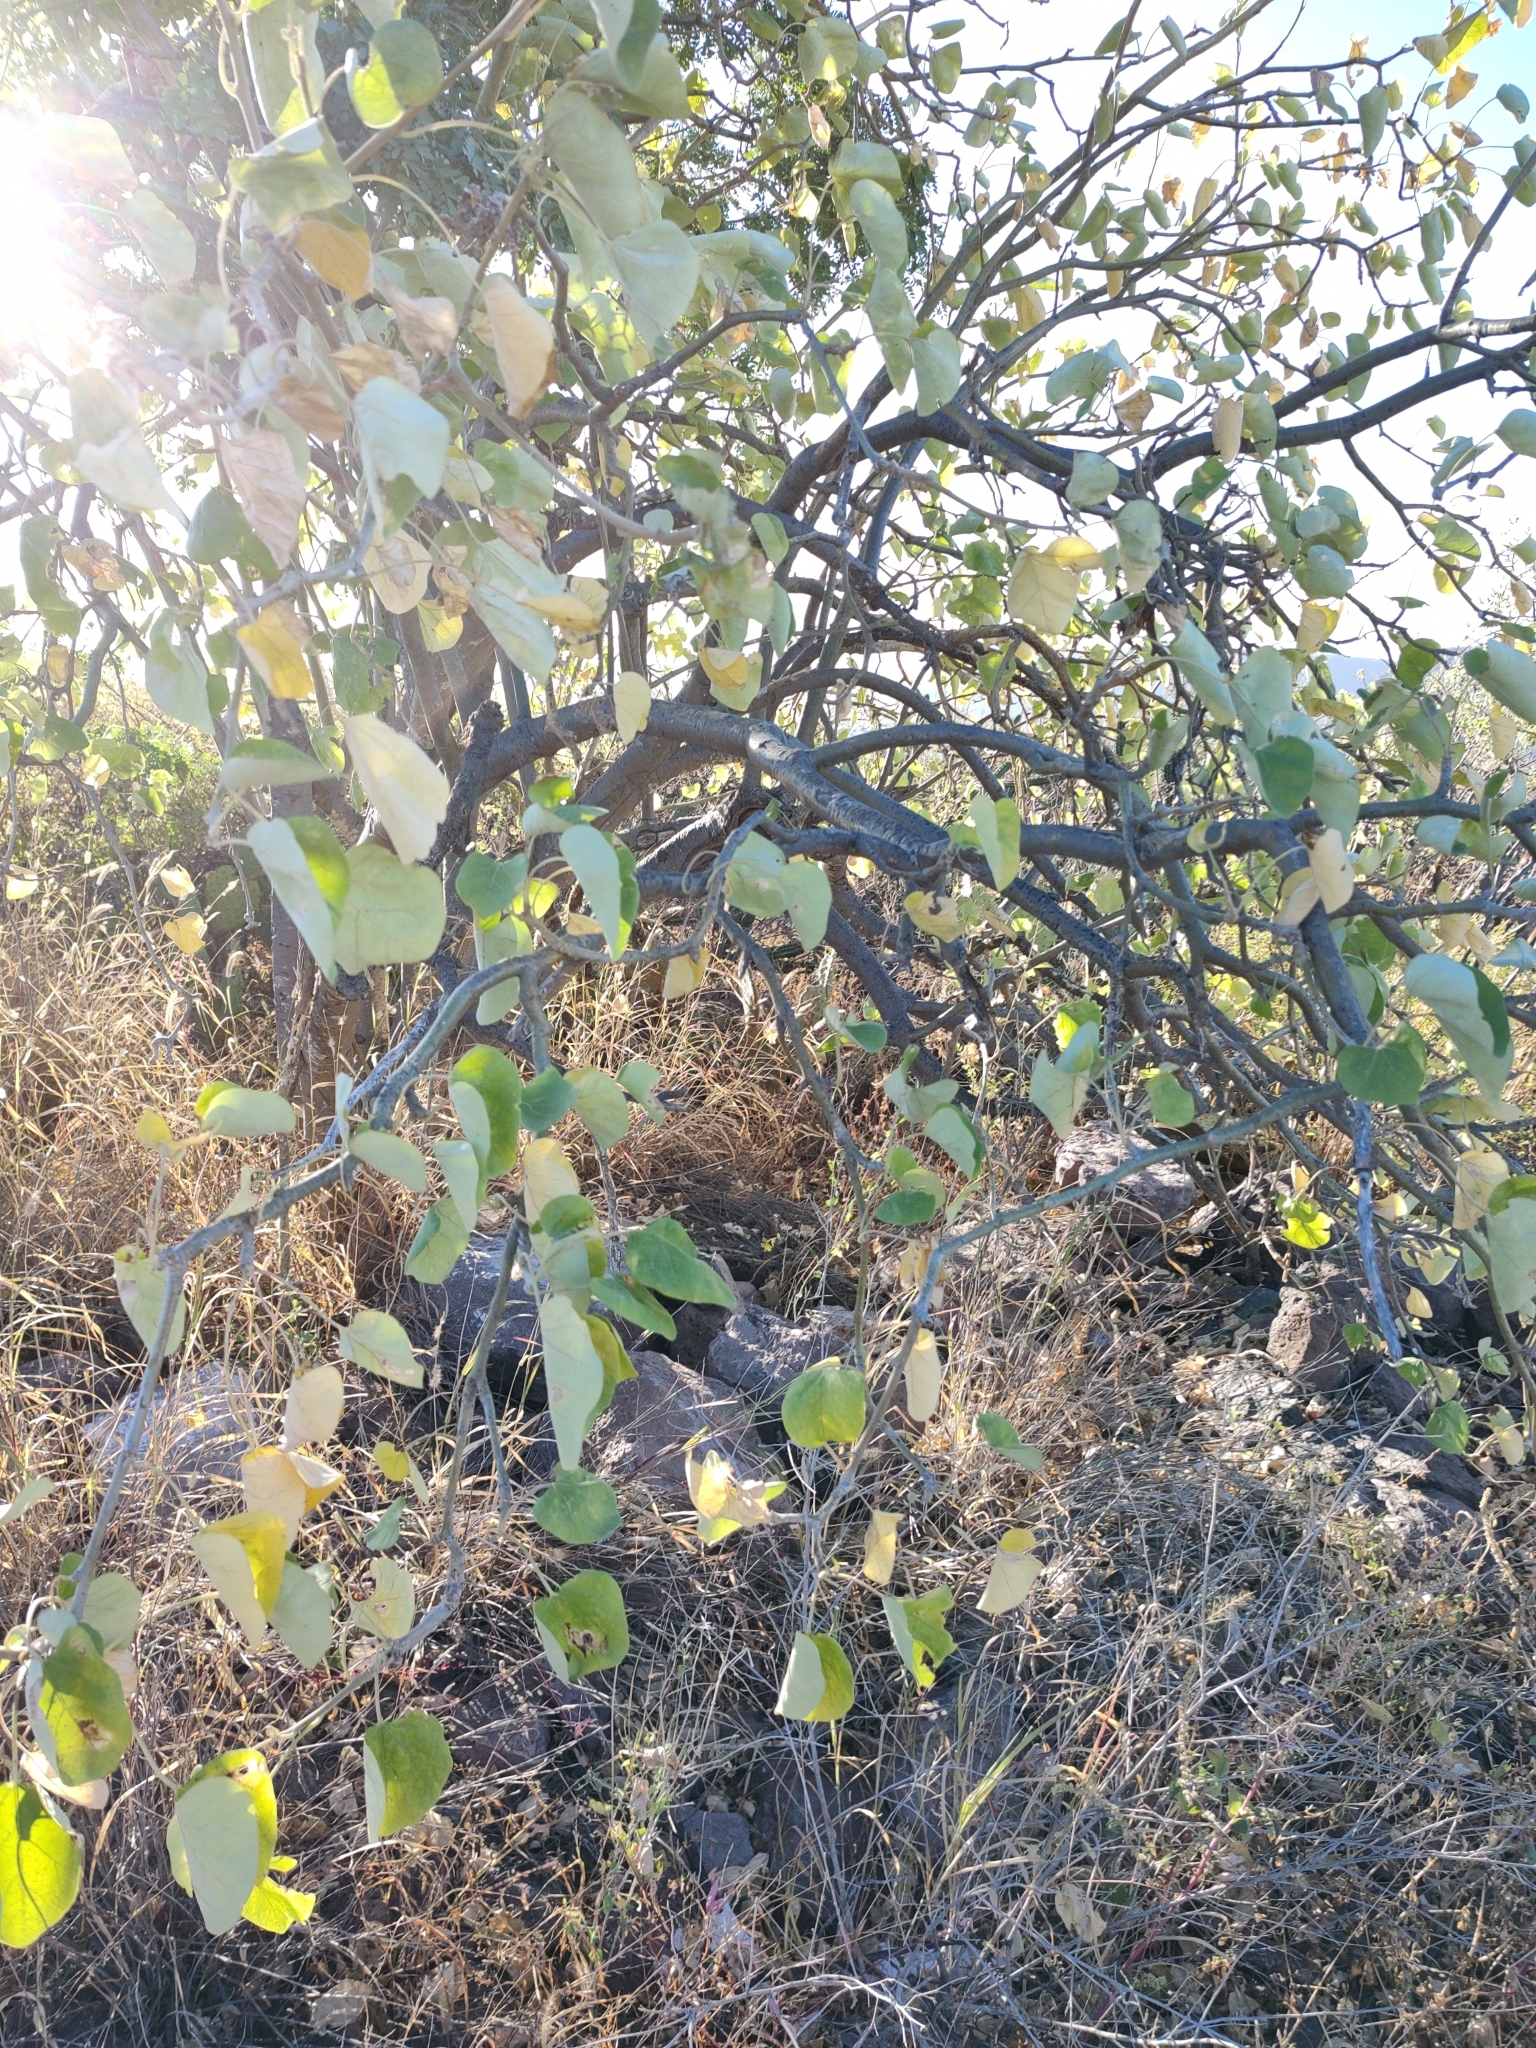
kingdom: Plantae
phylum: Tracheophyta
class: Magnoliopsida
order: Malpighiales
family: Euphorbiaceae
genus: Jatropha
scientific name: Jatropha cinerea
